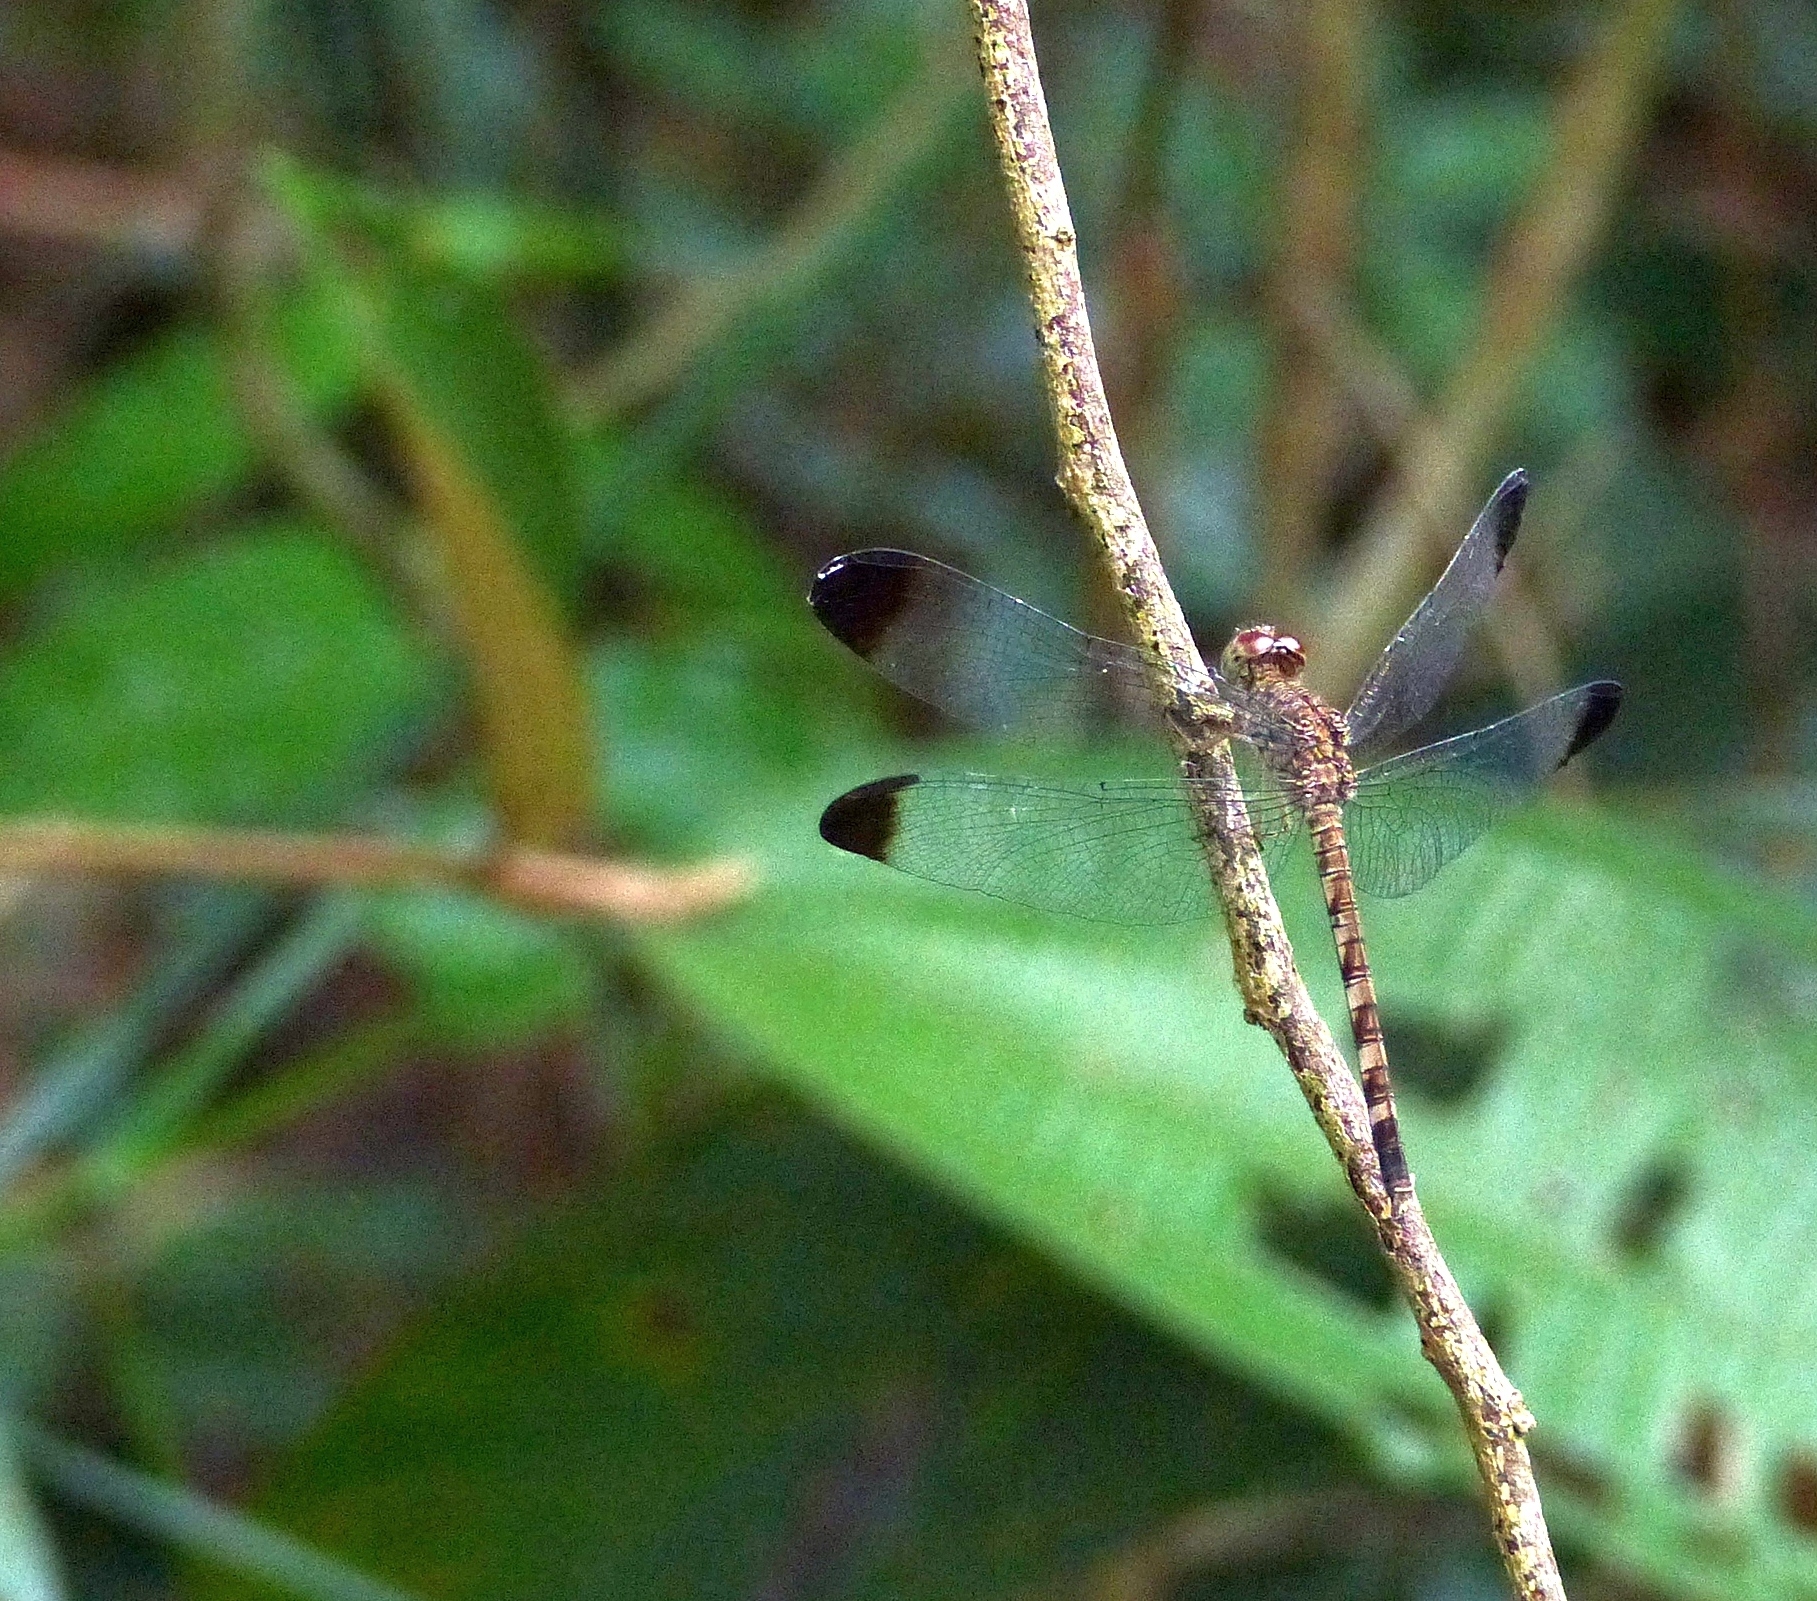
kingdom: Animalia
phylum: Arthropoda
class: Insecta
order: Odonata
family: Libellulidae
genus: Uracis
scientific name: Uracis imbuta
